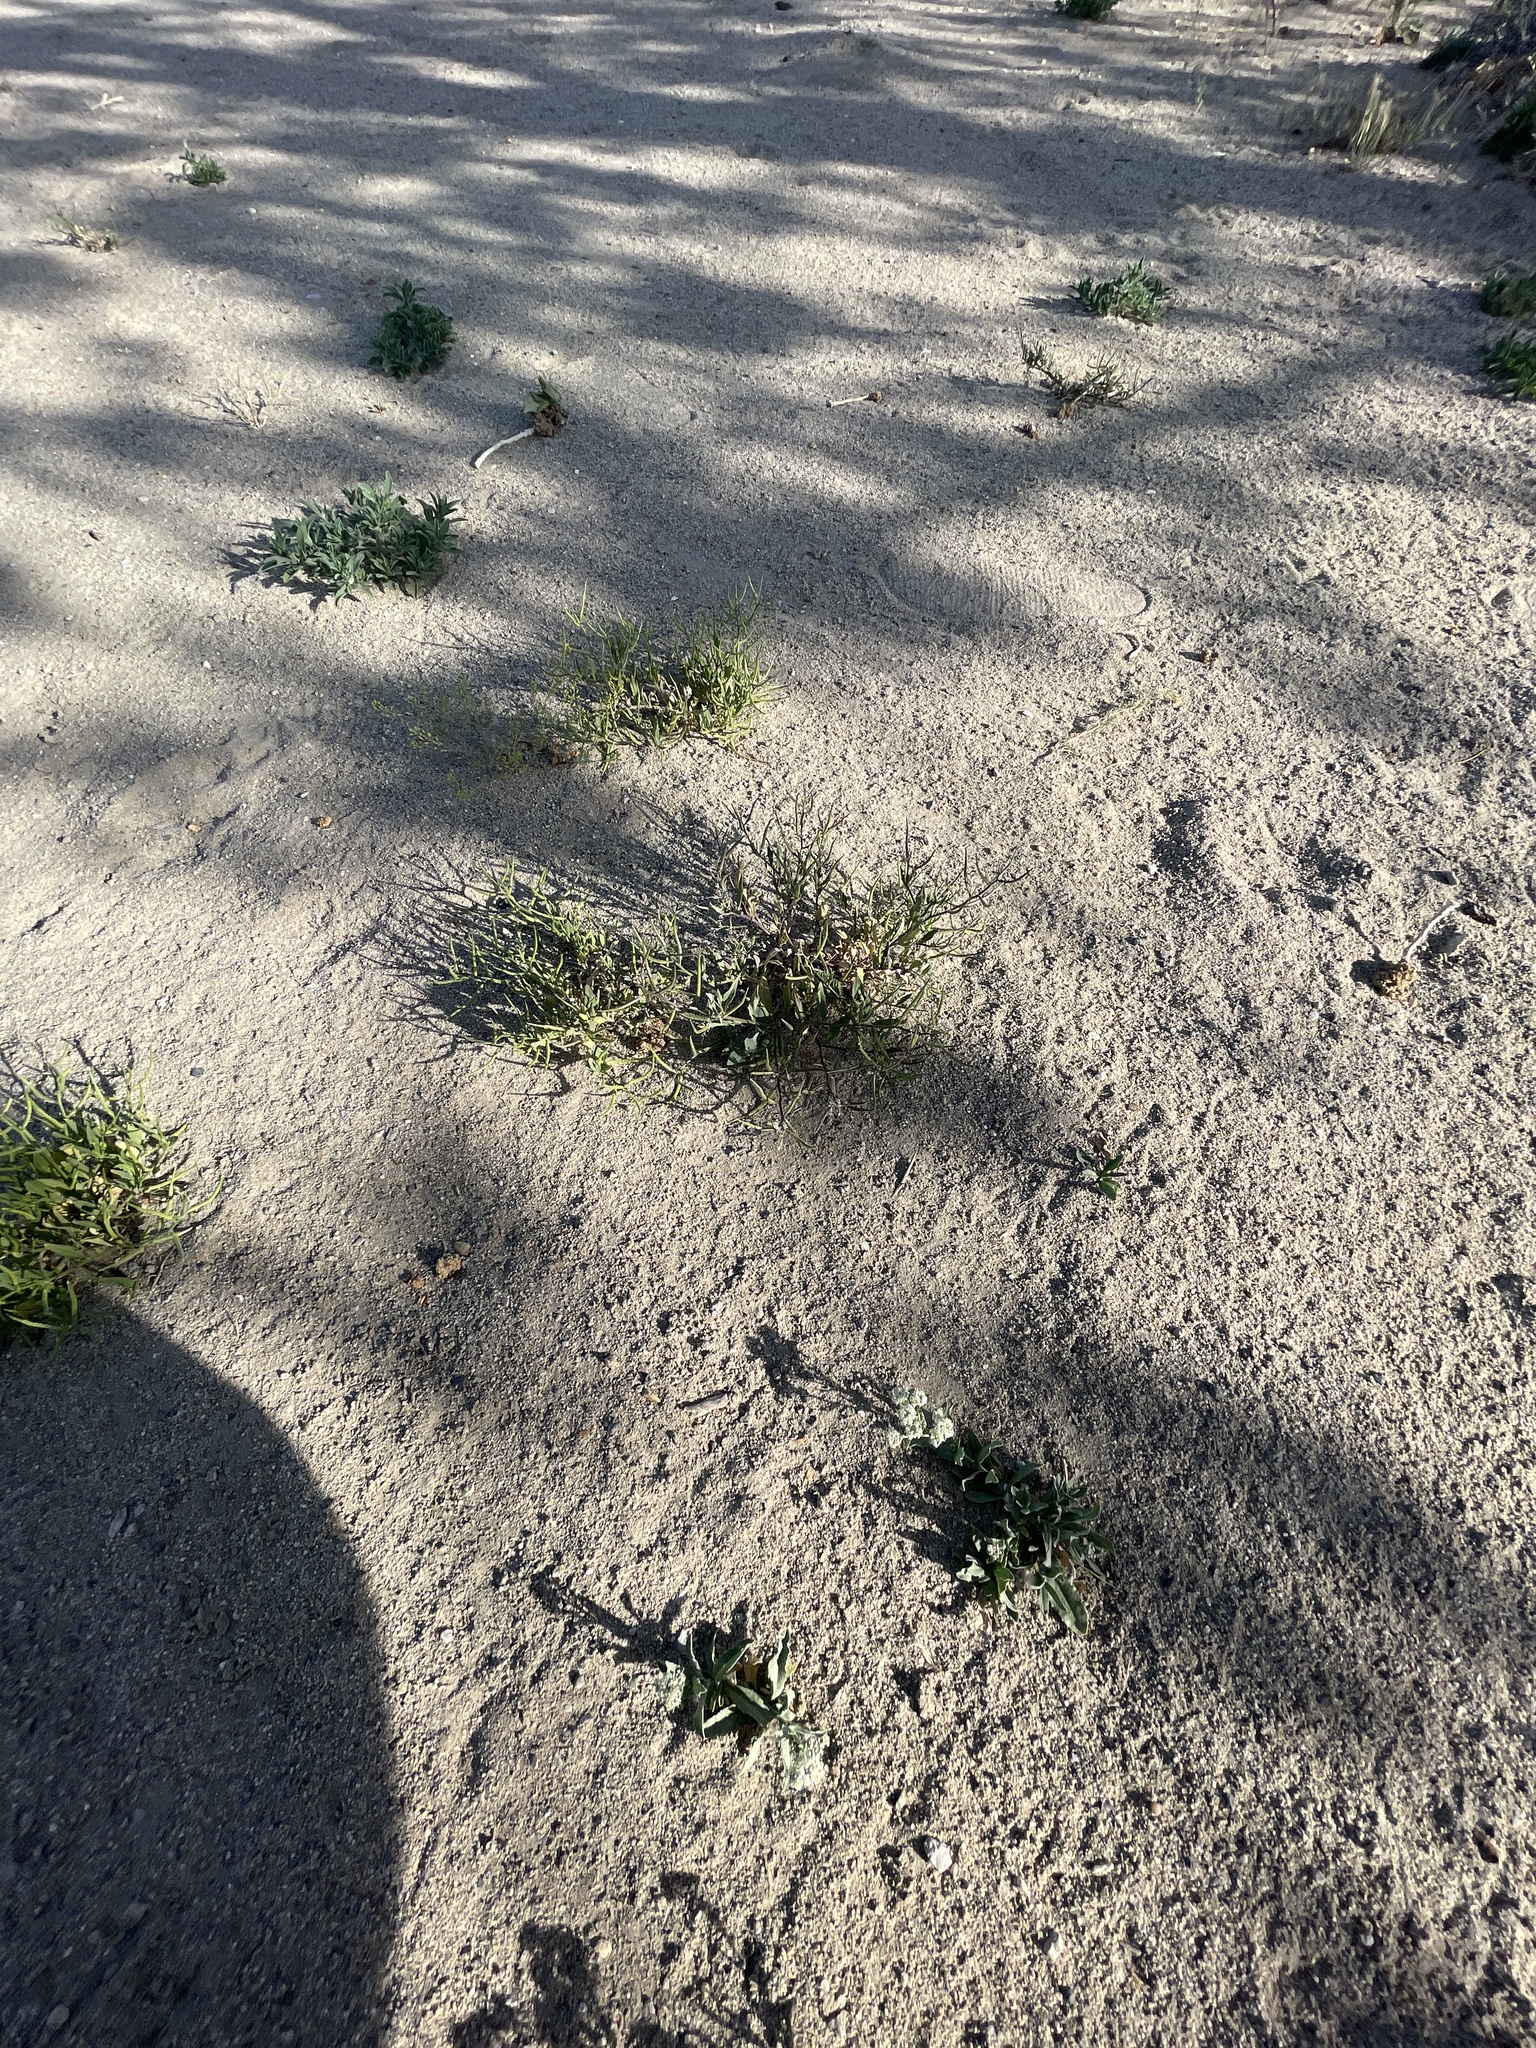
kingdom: Plantae
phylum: Tracheophyta
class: Magnoliopsida
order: Brassicales
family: Brassicaceae
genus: Chorispora
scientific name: Chorispora tenella
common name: Crossflower
